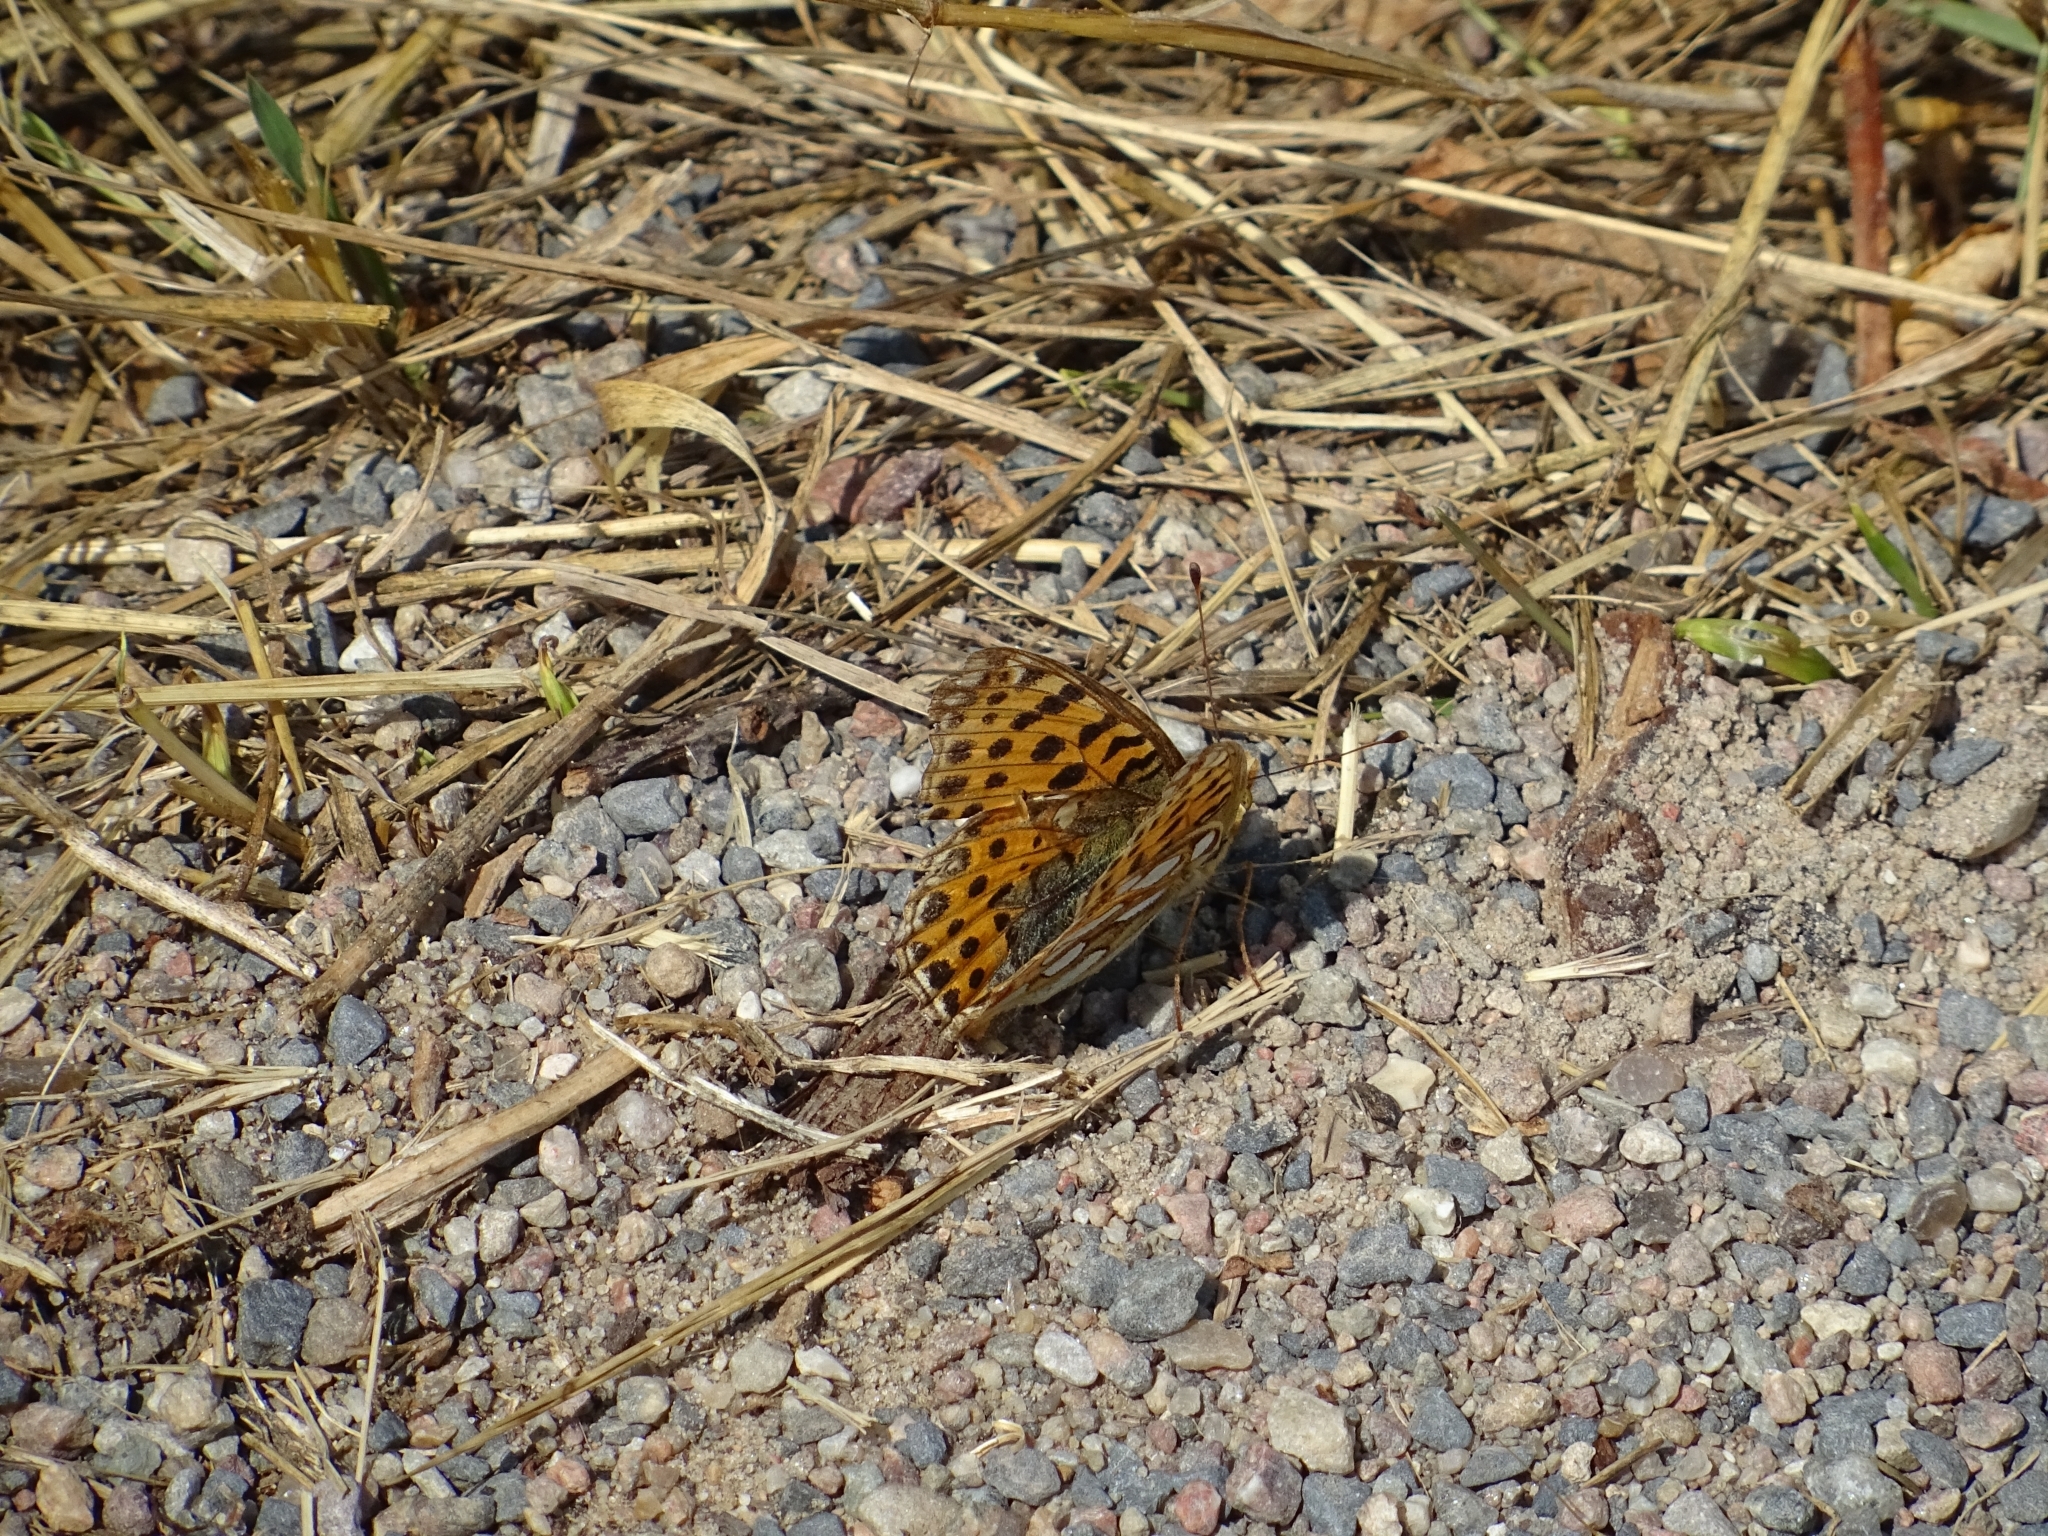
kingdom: Animalia
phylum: Arthropoda
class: Insecta
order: Lepidoptera
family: Nymphalidae
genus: Issoria
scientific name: Issoria lathonia
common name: Queen of spain fritillary
